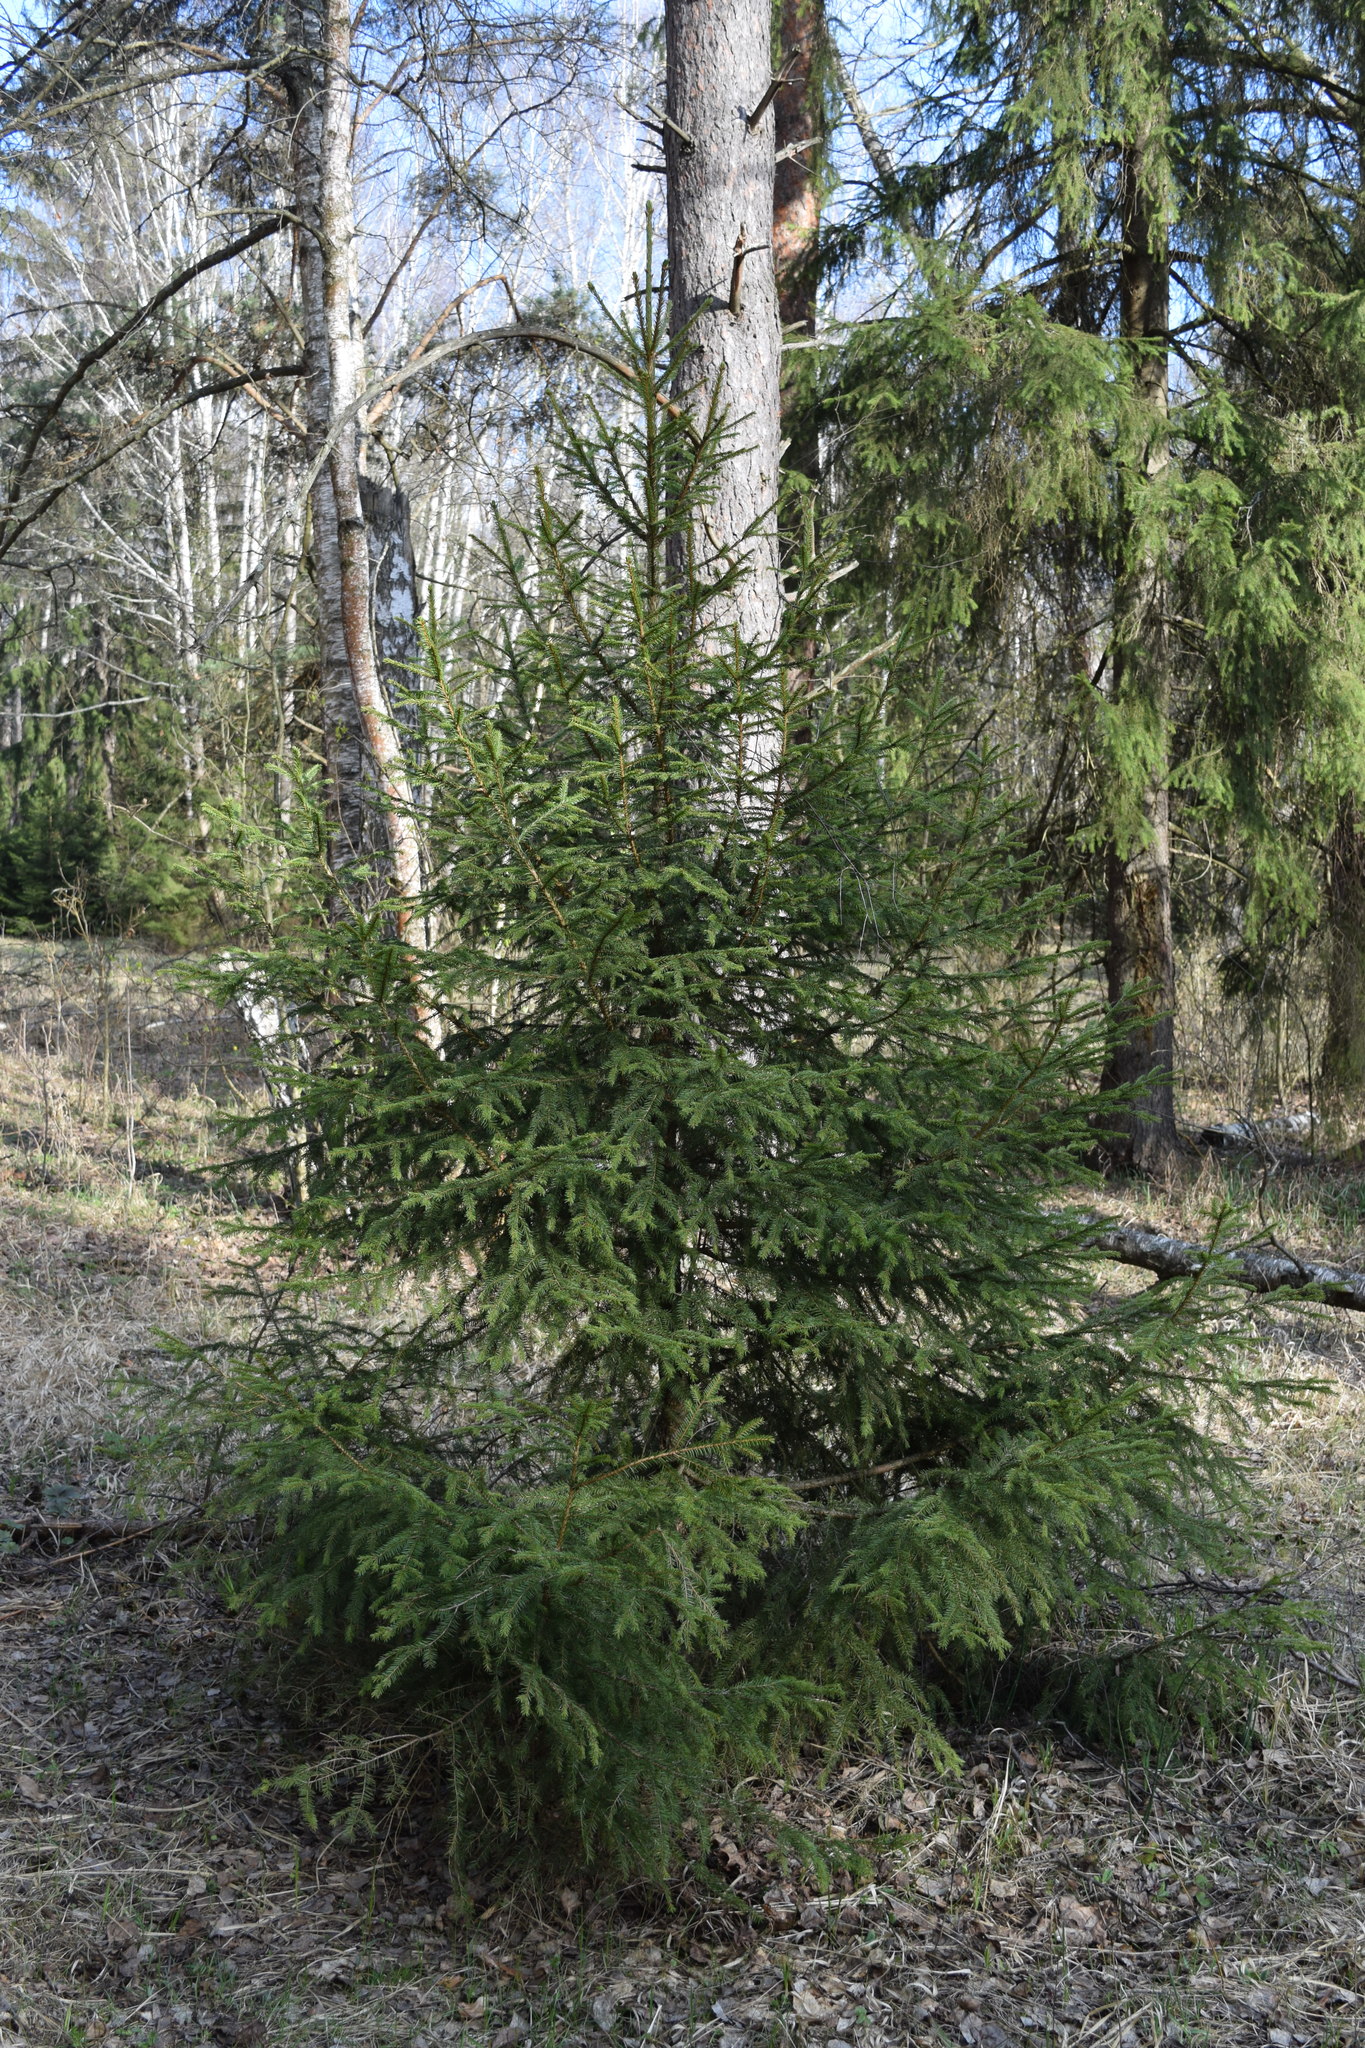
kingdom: Plantae
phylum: Tracheophyta
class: Pinopsida
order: Pinales
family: Pinaceae
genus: Picea
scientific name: Picea abies
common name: Norway spruce
